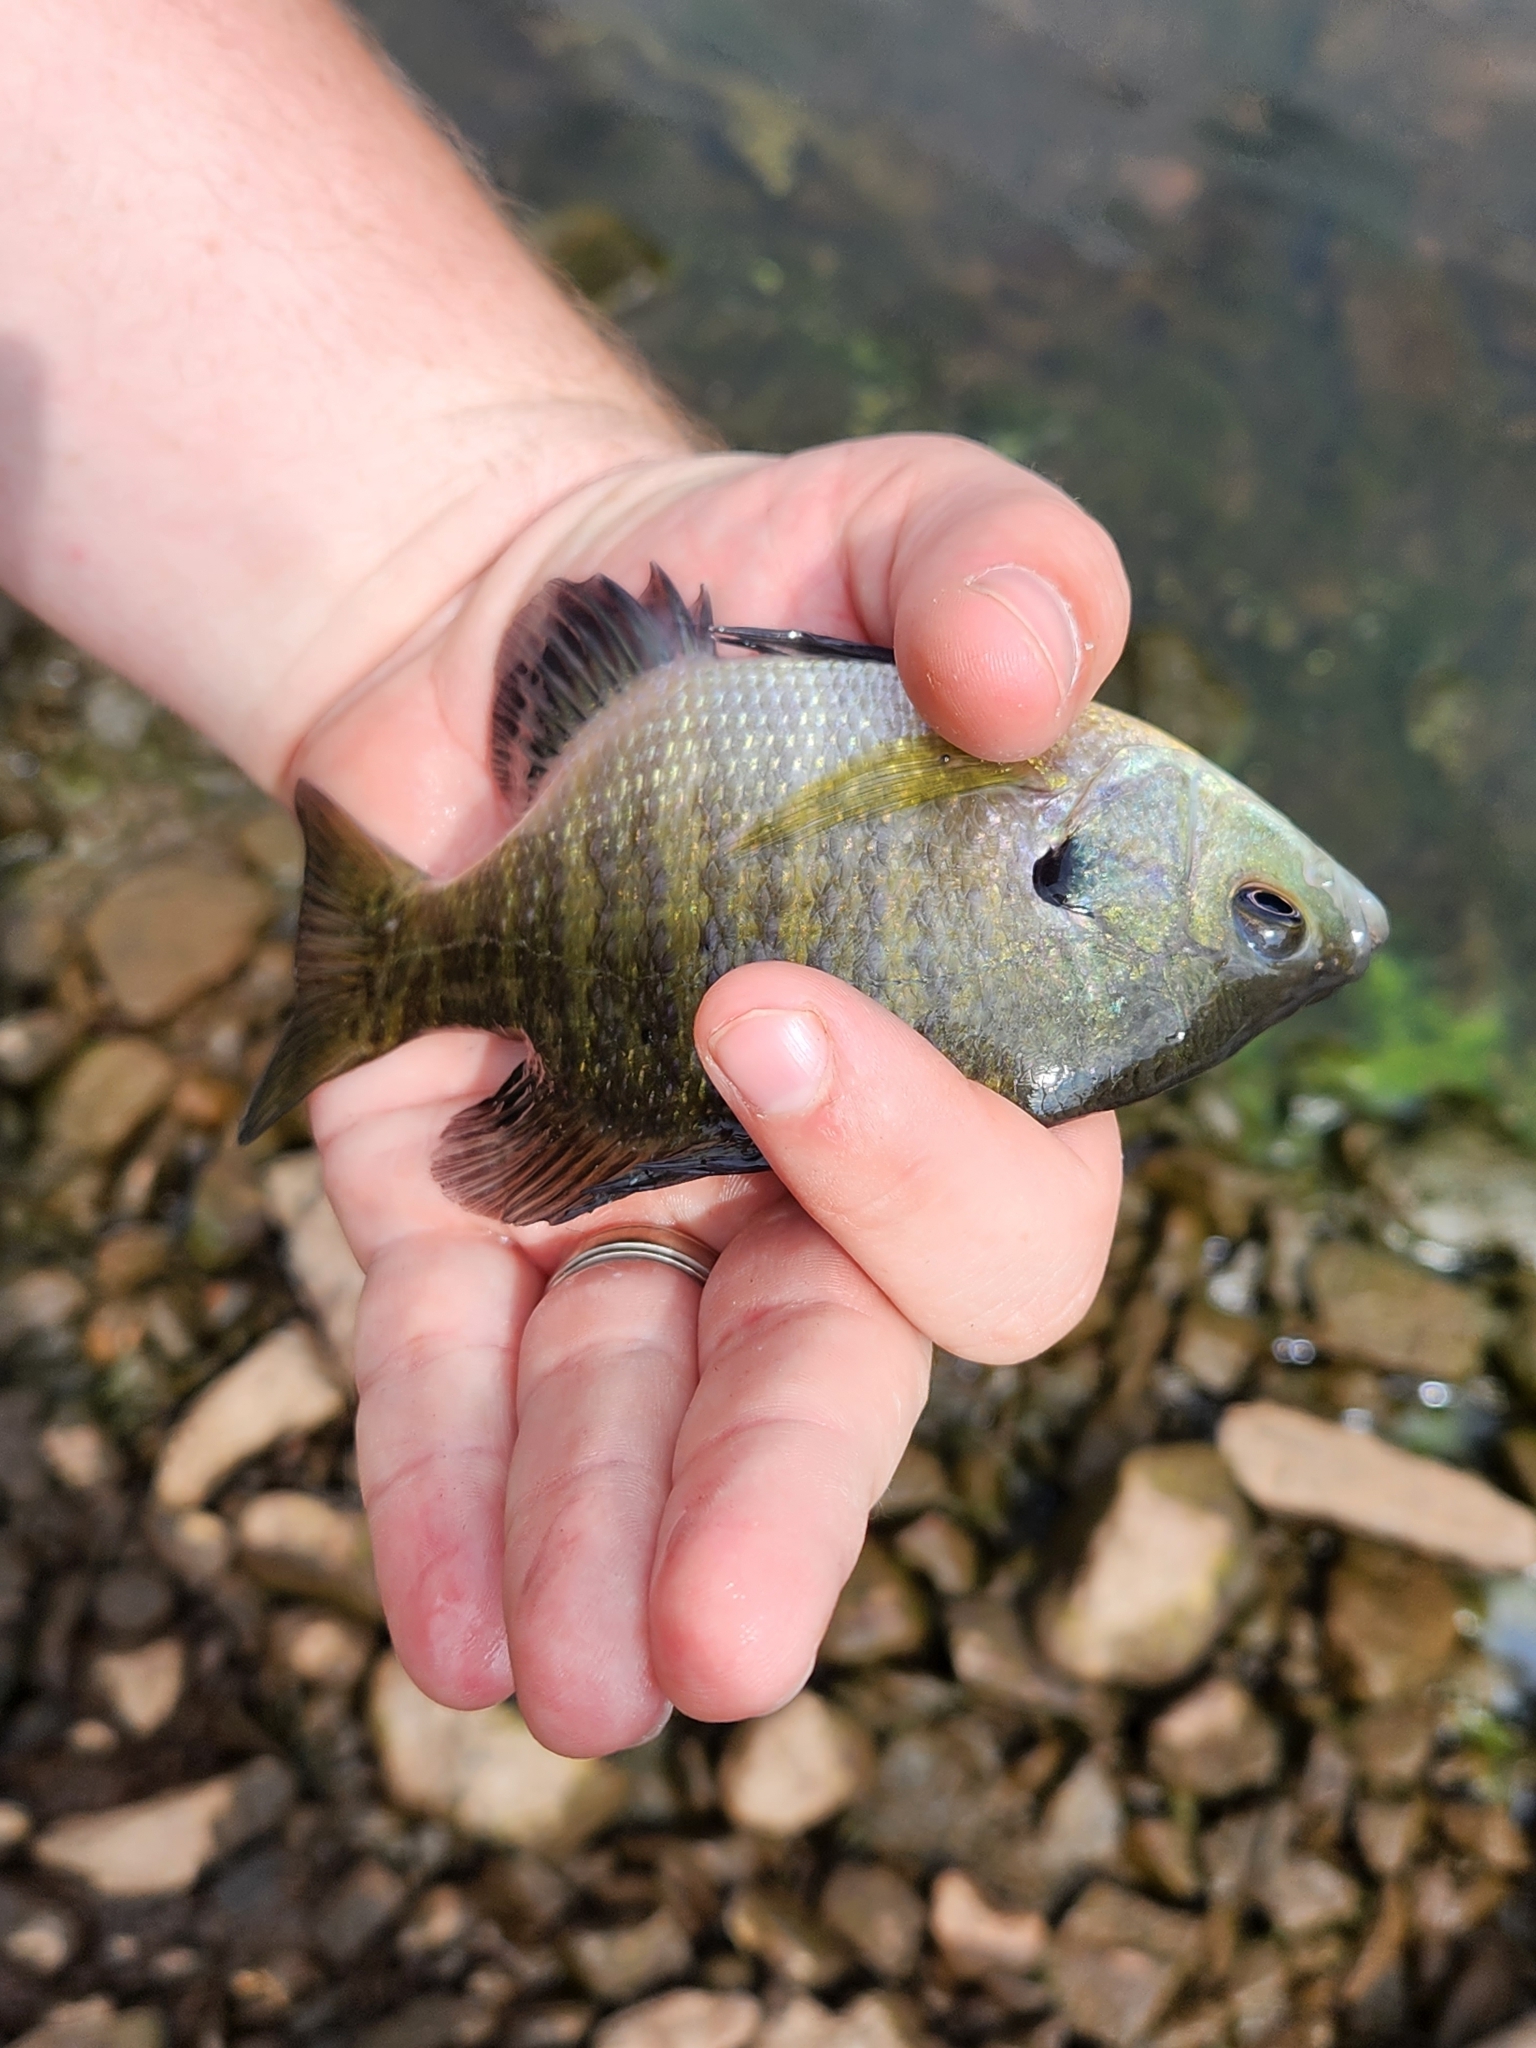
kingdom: Animalia
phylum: Chordata
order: Perciformes
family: Centrarchidae
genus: Lepomis
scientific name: Lepomis macrochirus
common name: Bluegill
